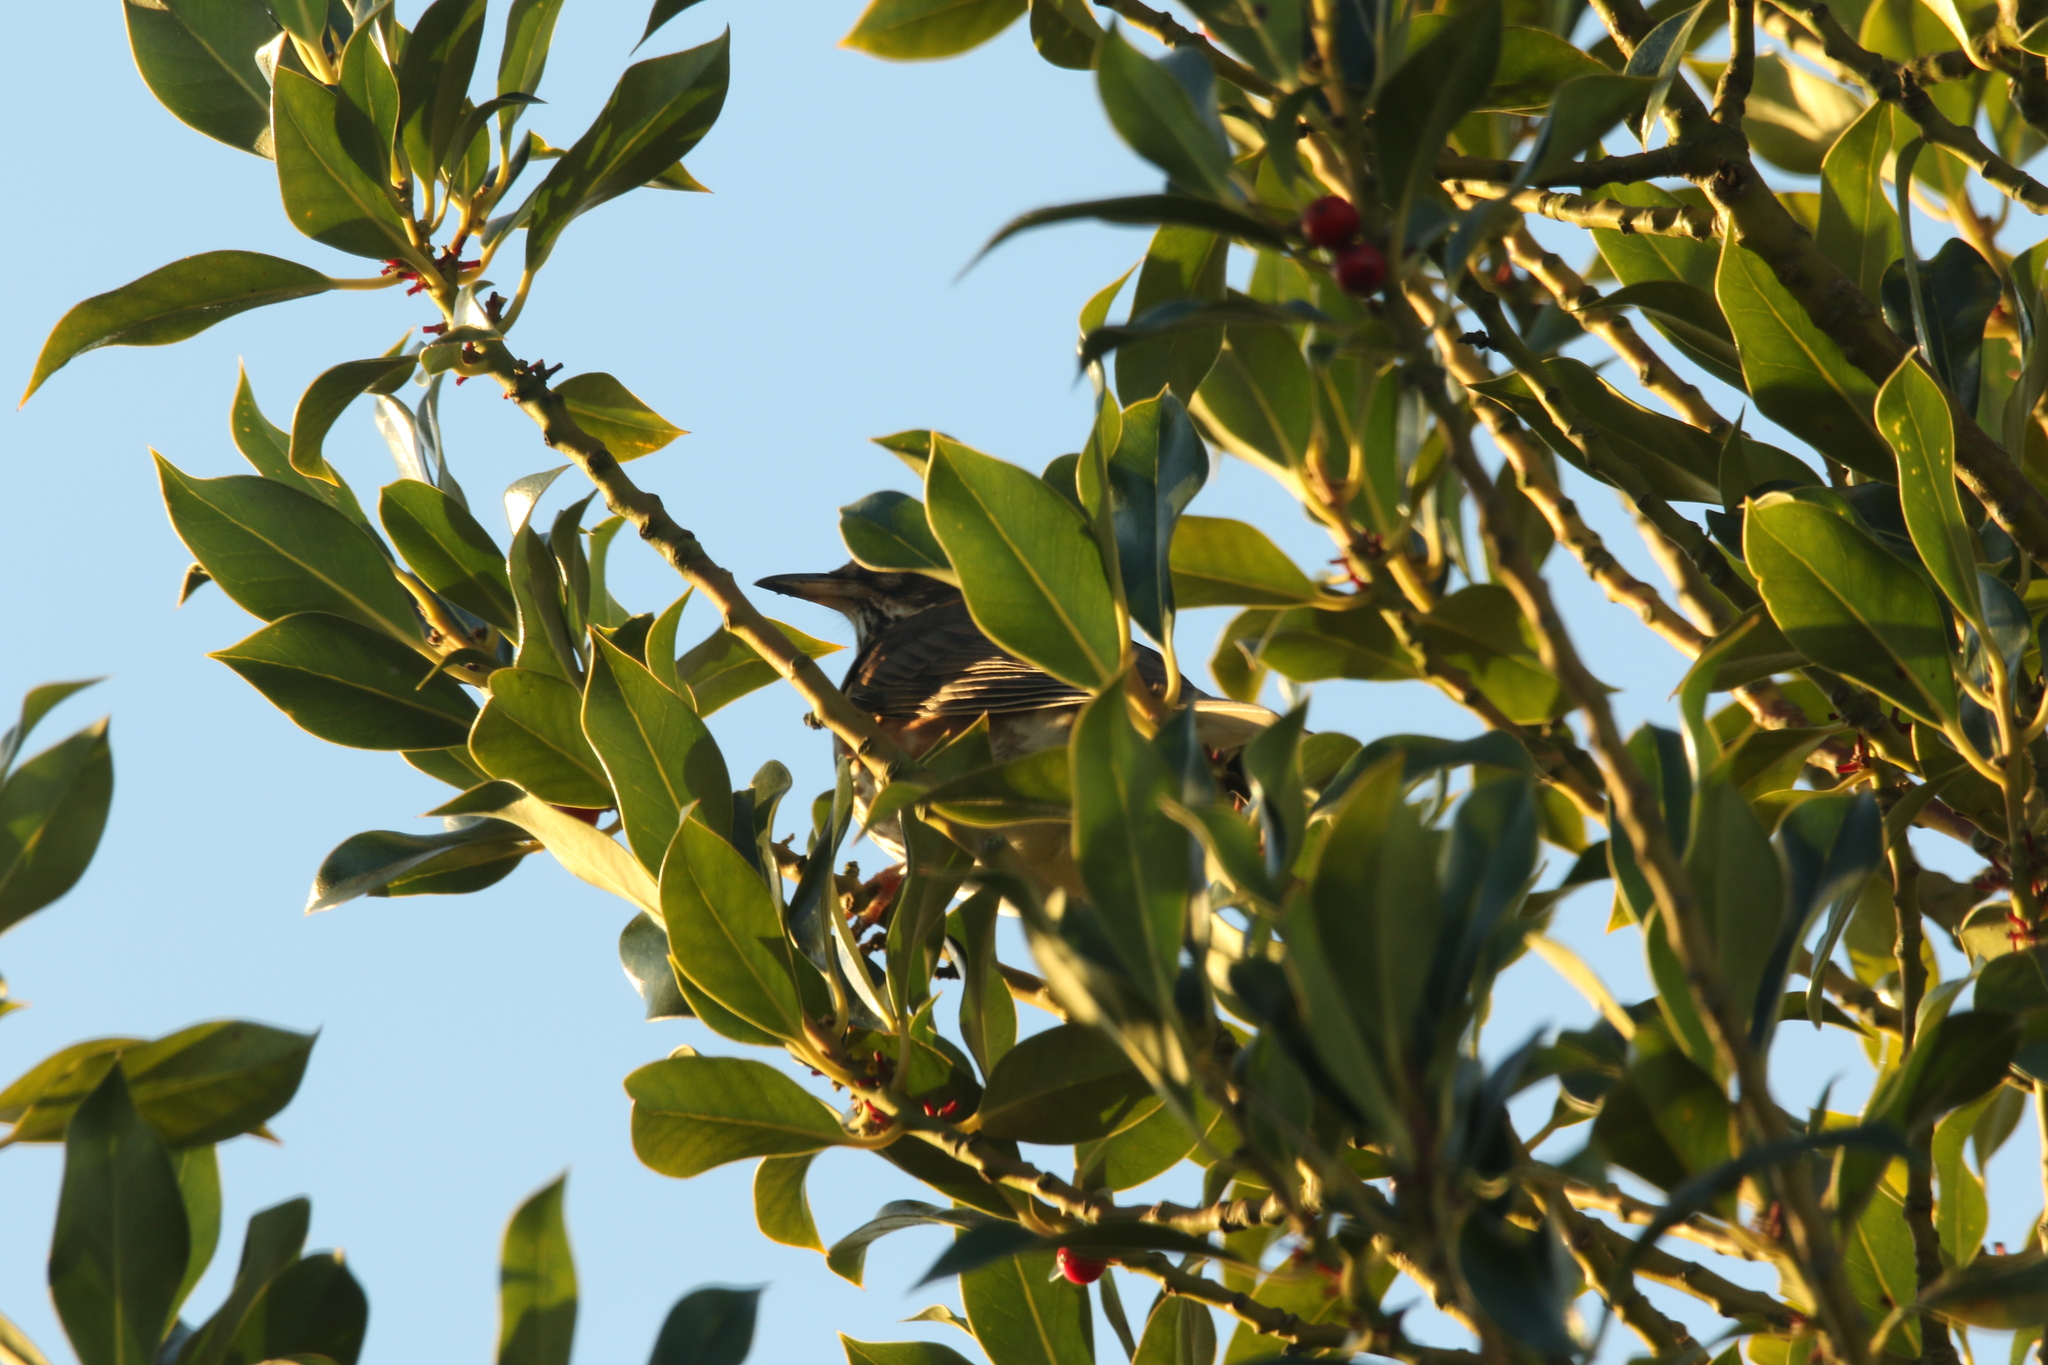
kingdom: Animalia
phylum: Chordata
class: Aves
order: Passeriformes
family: Turdidae
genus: Turdus
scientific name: Turdus iliacus
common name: Redwing
